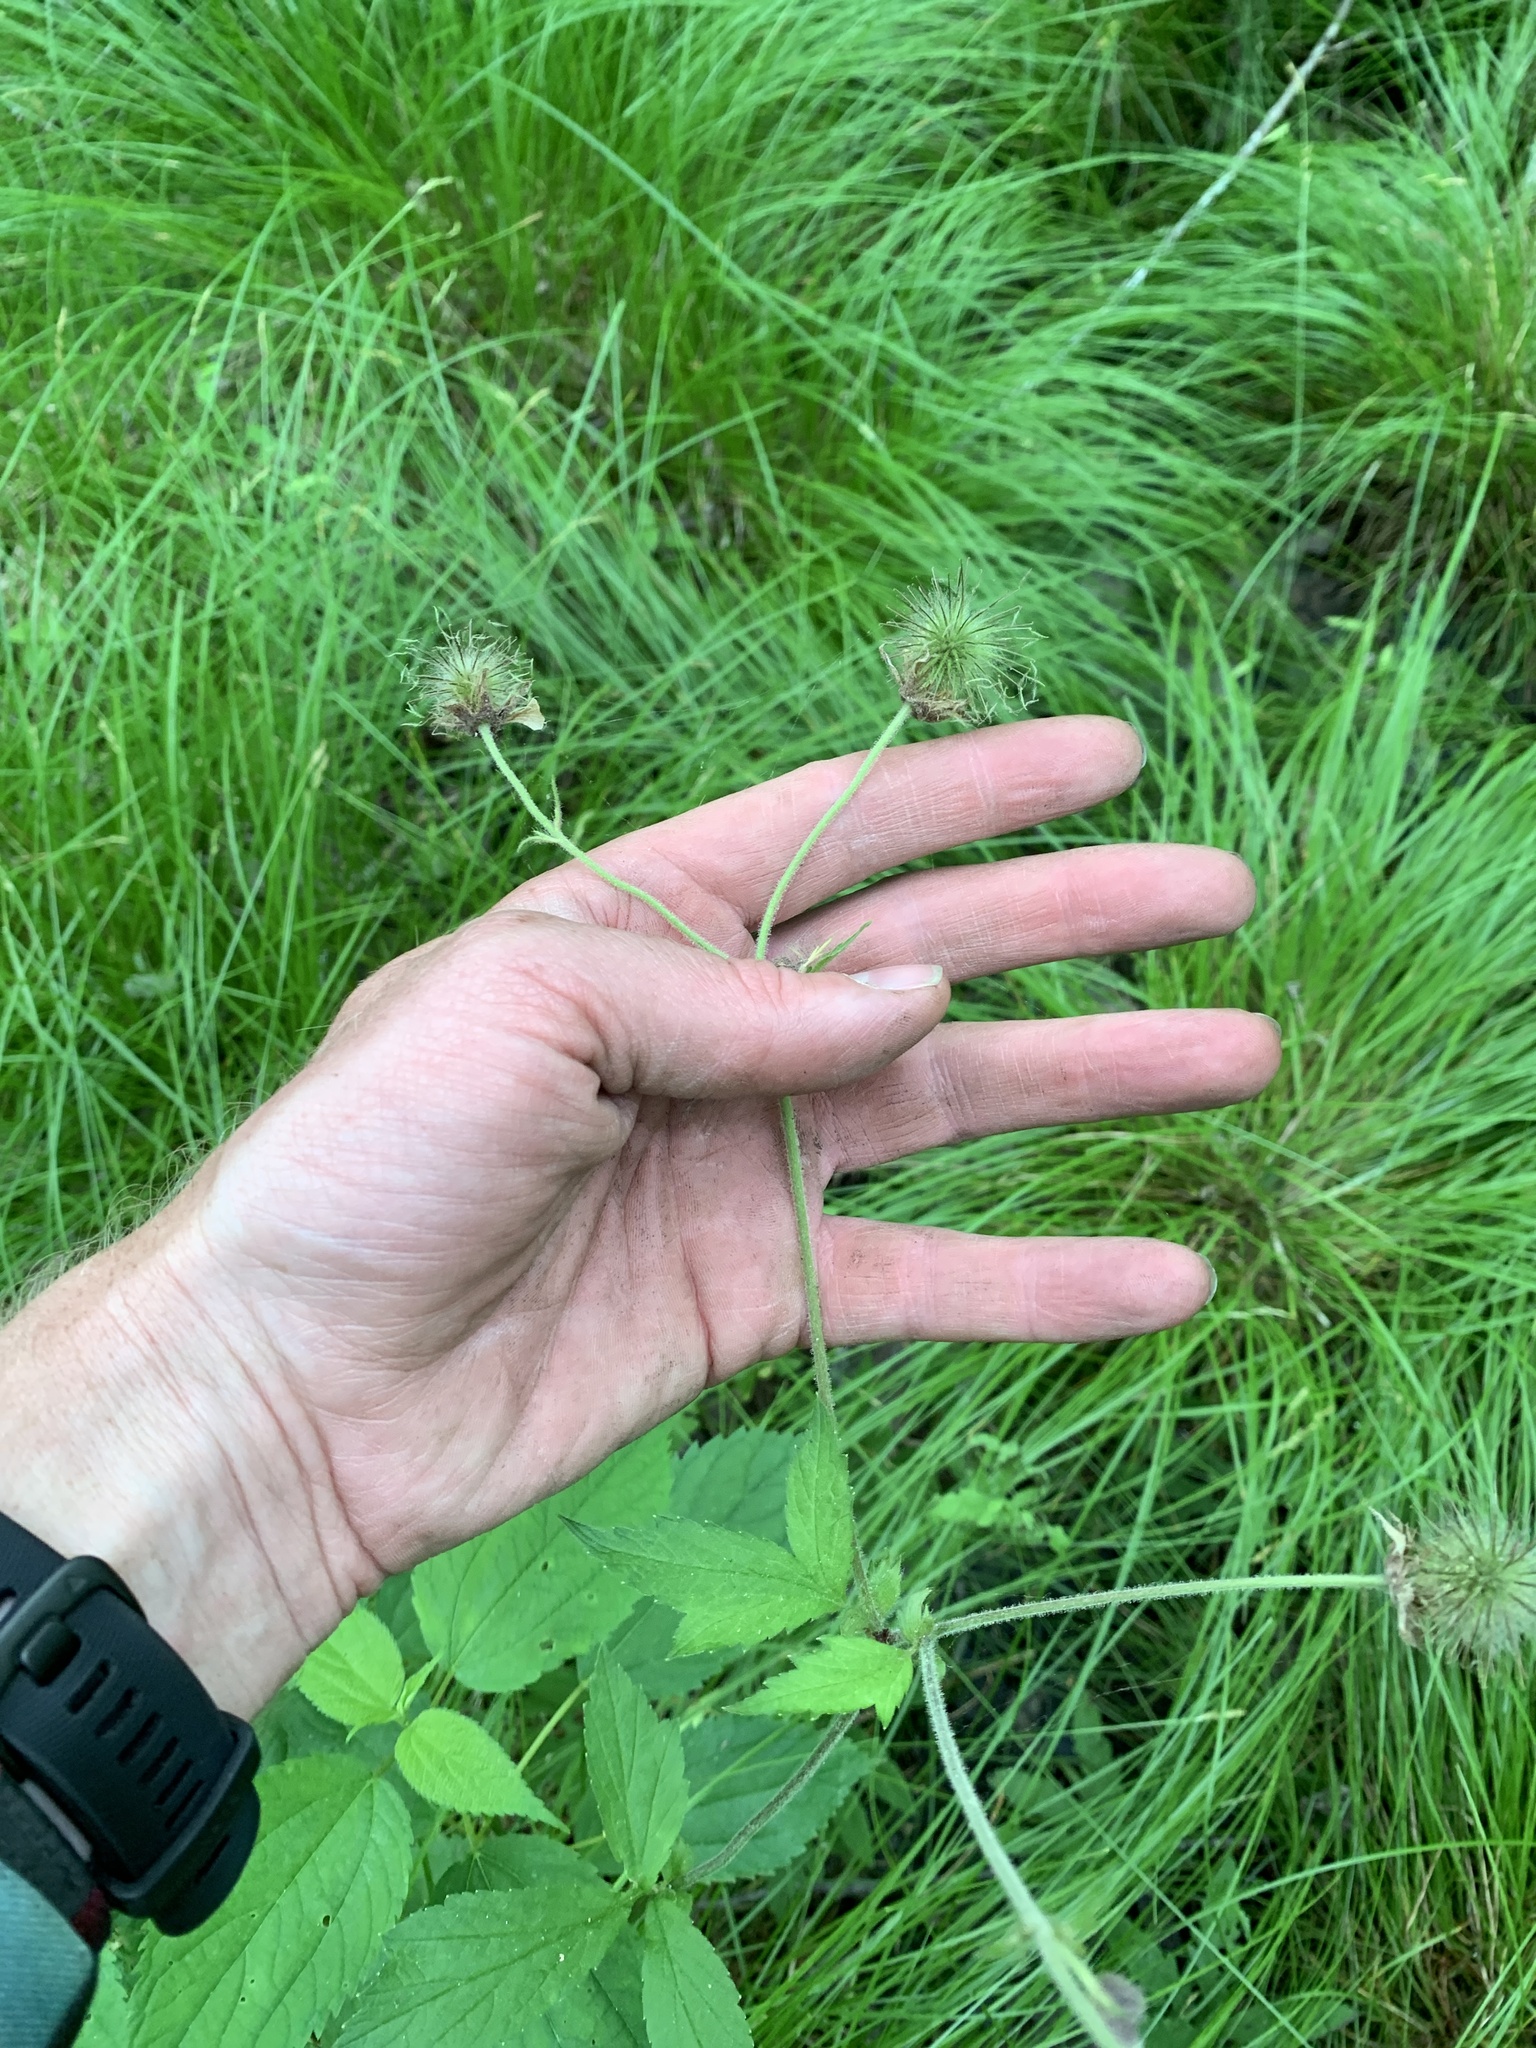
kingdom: Plantae
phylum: Tracheophyta
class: Magnoliopsida
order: Rosales
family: Rosaceae
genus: Geum
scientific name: Geum rivale
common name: Water avens
